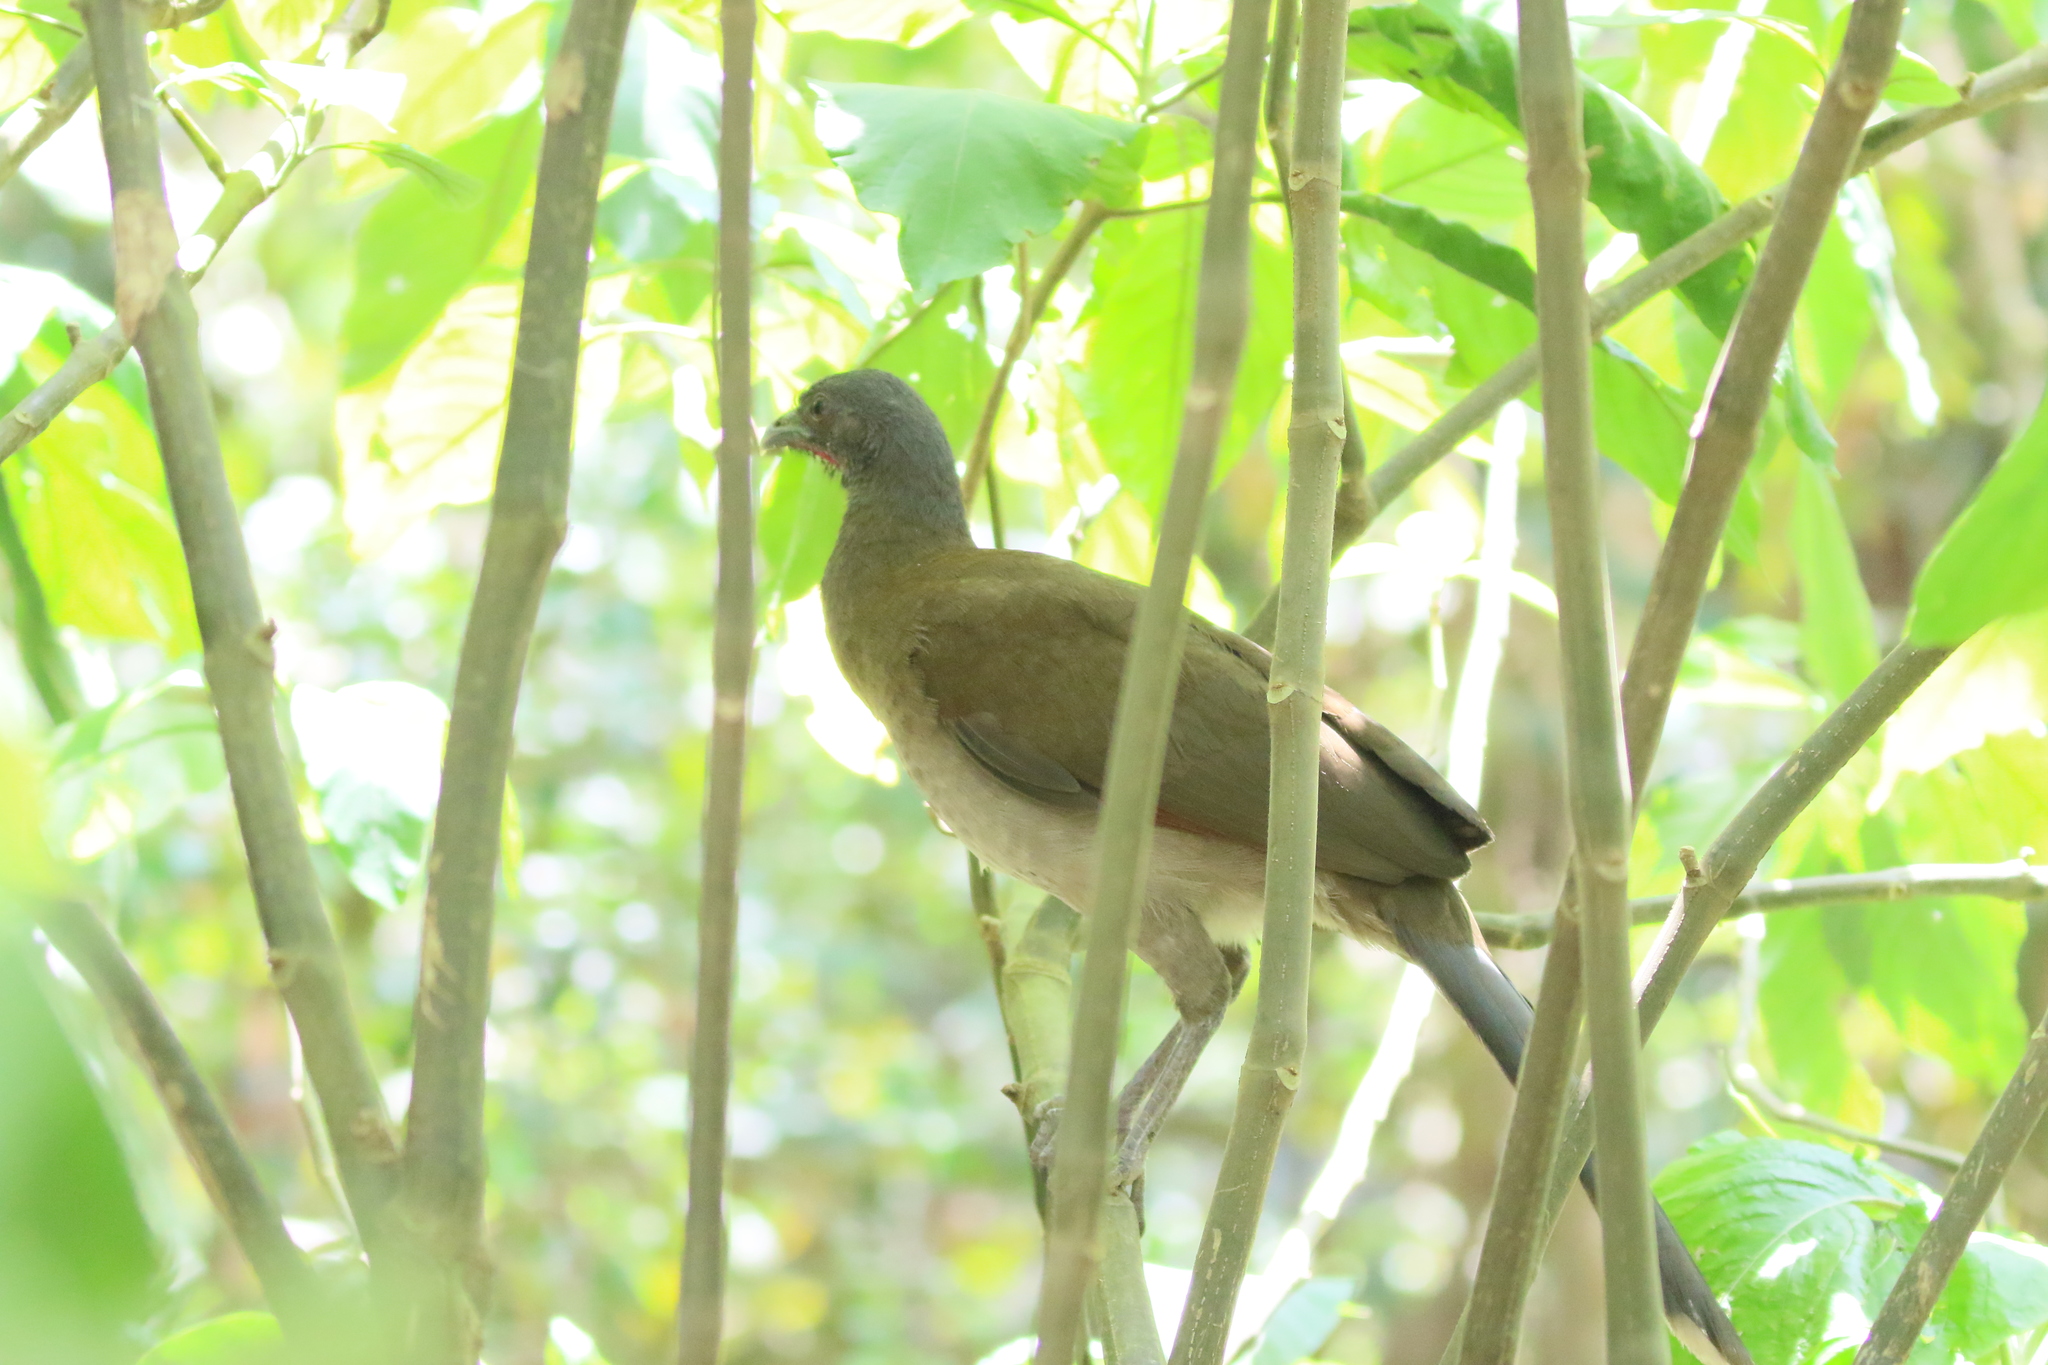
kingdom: Animalia
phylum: Chordata
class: Aves
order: Galliformes
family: Cracidae
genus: Ortalis
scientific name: Ortalis cinereiceps
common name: Grey-headed chachalaca
